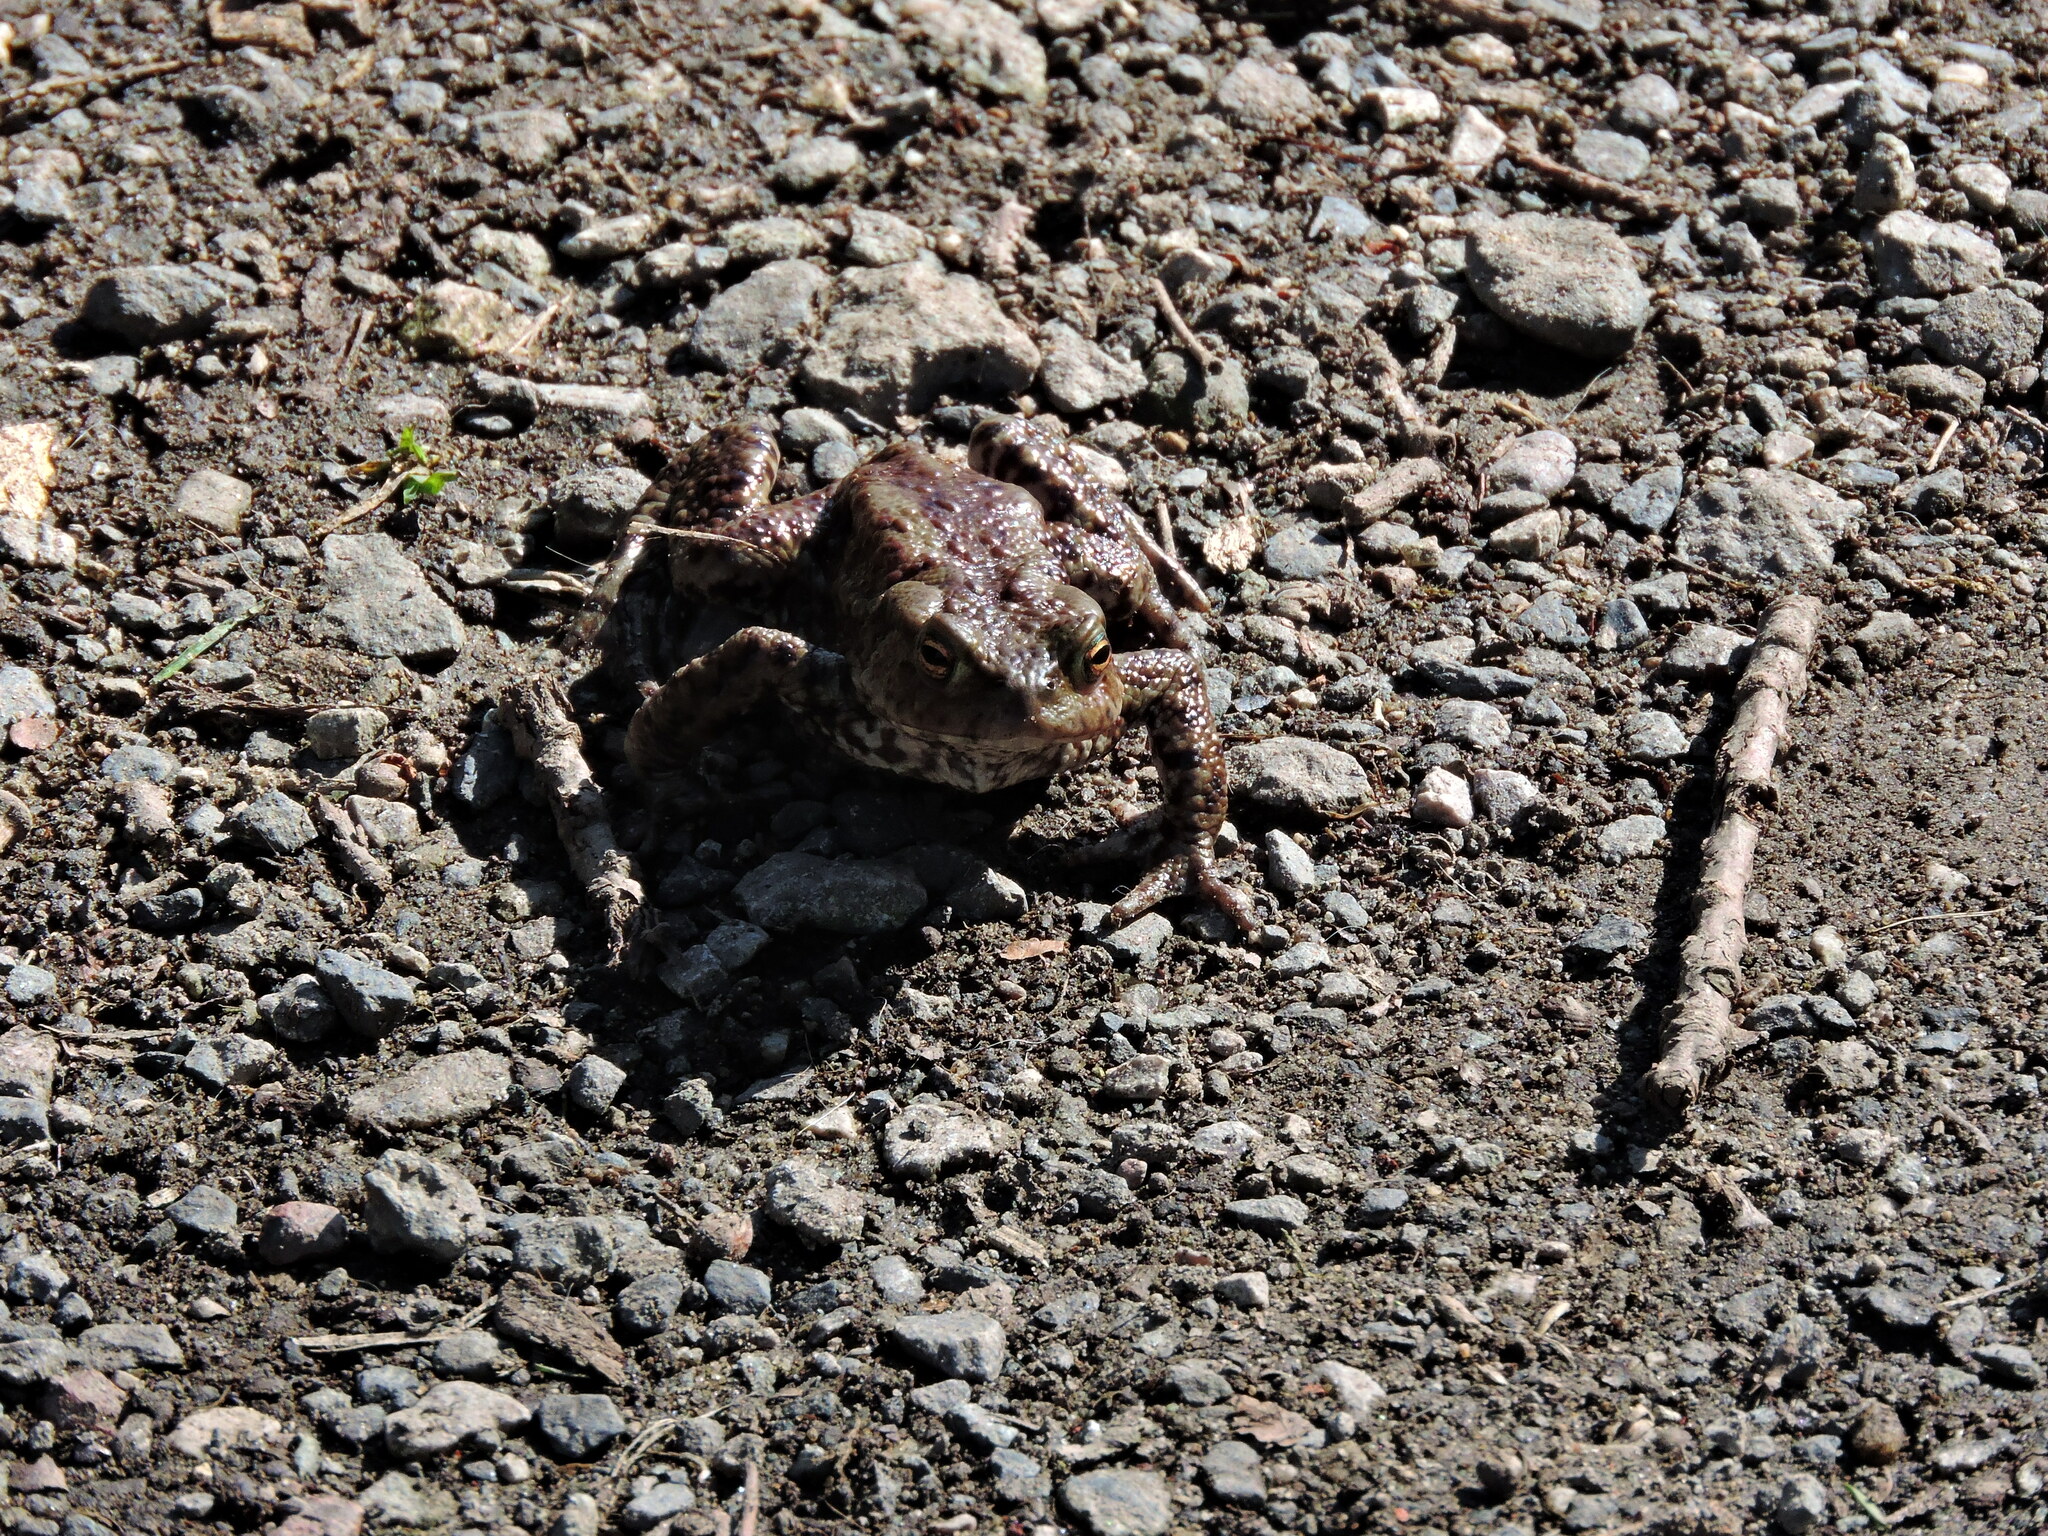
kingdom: Animalia
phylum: Chordata
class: Amphibia
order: Anura
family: Bufonidae
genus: Bufo
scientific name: Bufo bufo
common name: Common toad
